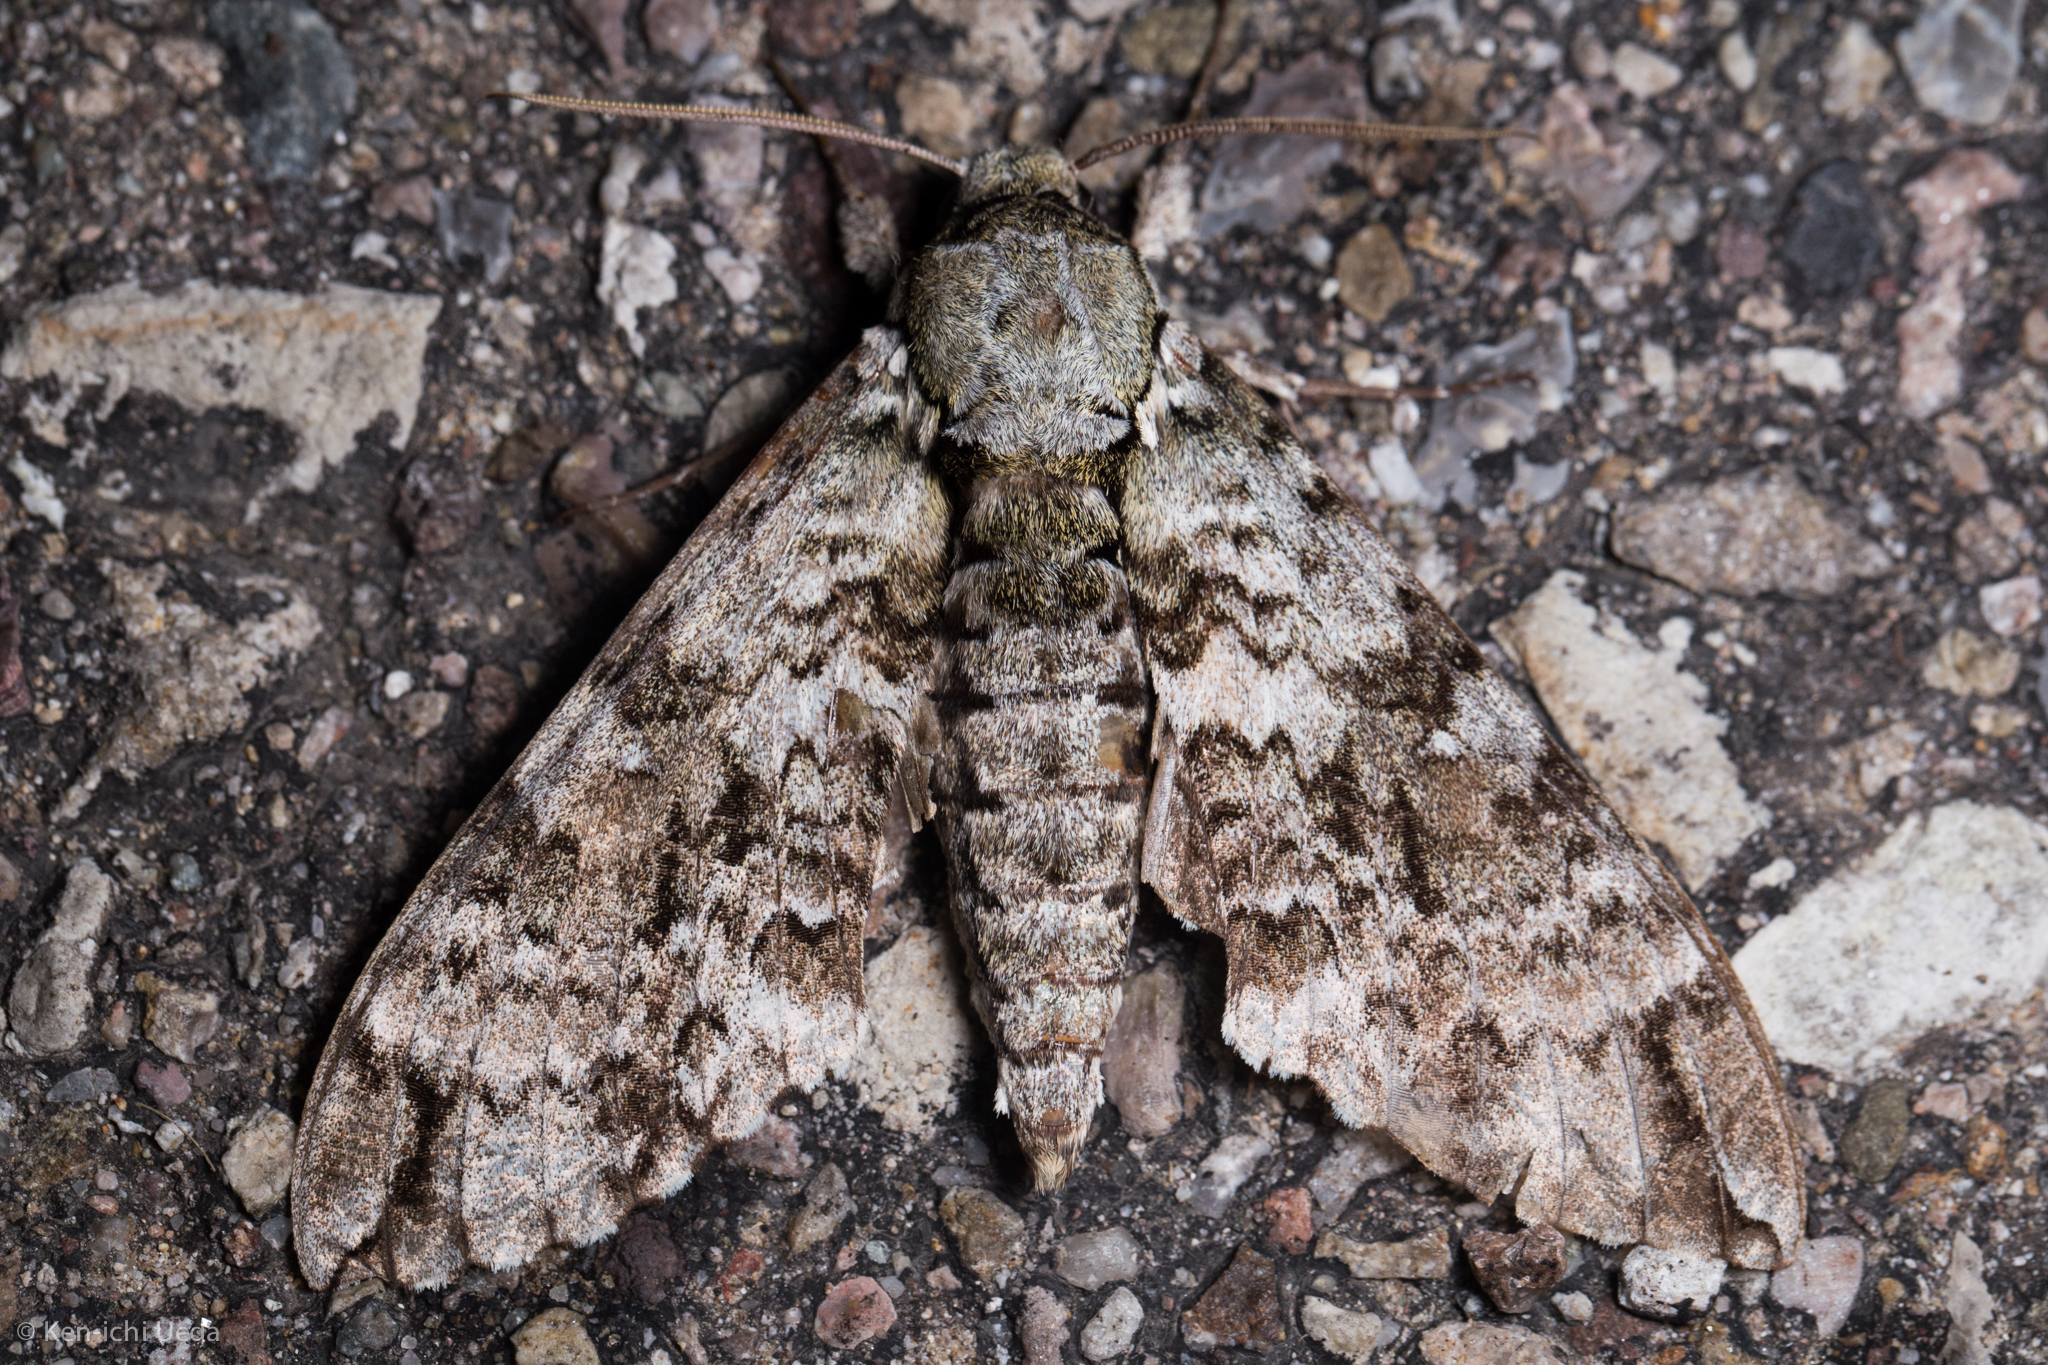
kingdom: Animalia
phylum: Arthropoda
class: Insecta
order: Lepidoptera
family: Sphingidae
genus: Manduca
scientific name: Manduca florestan
